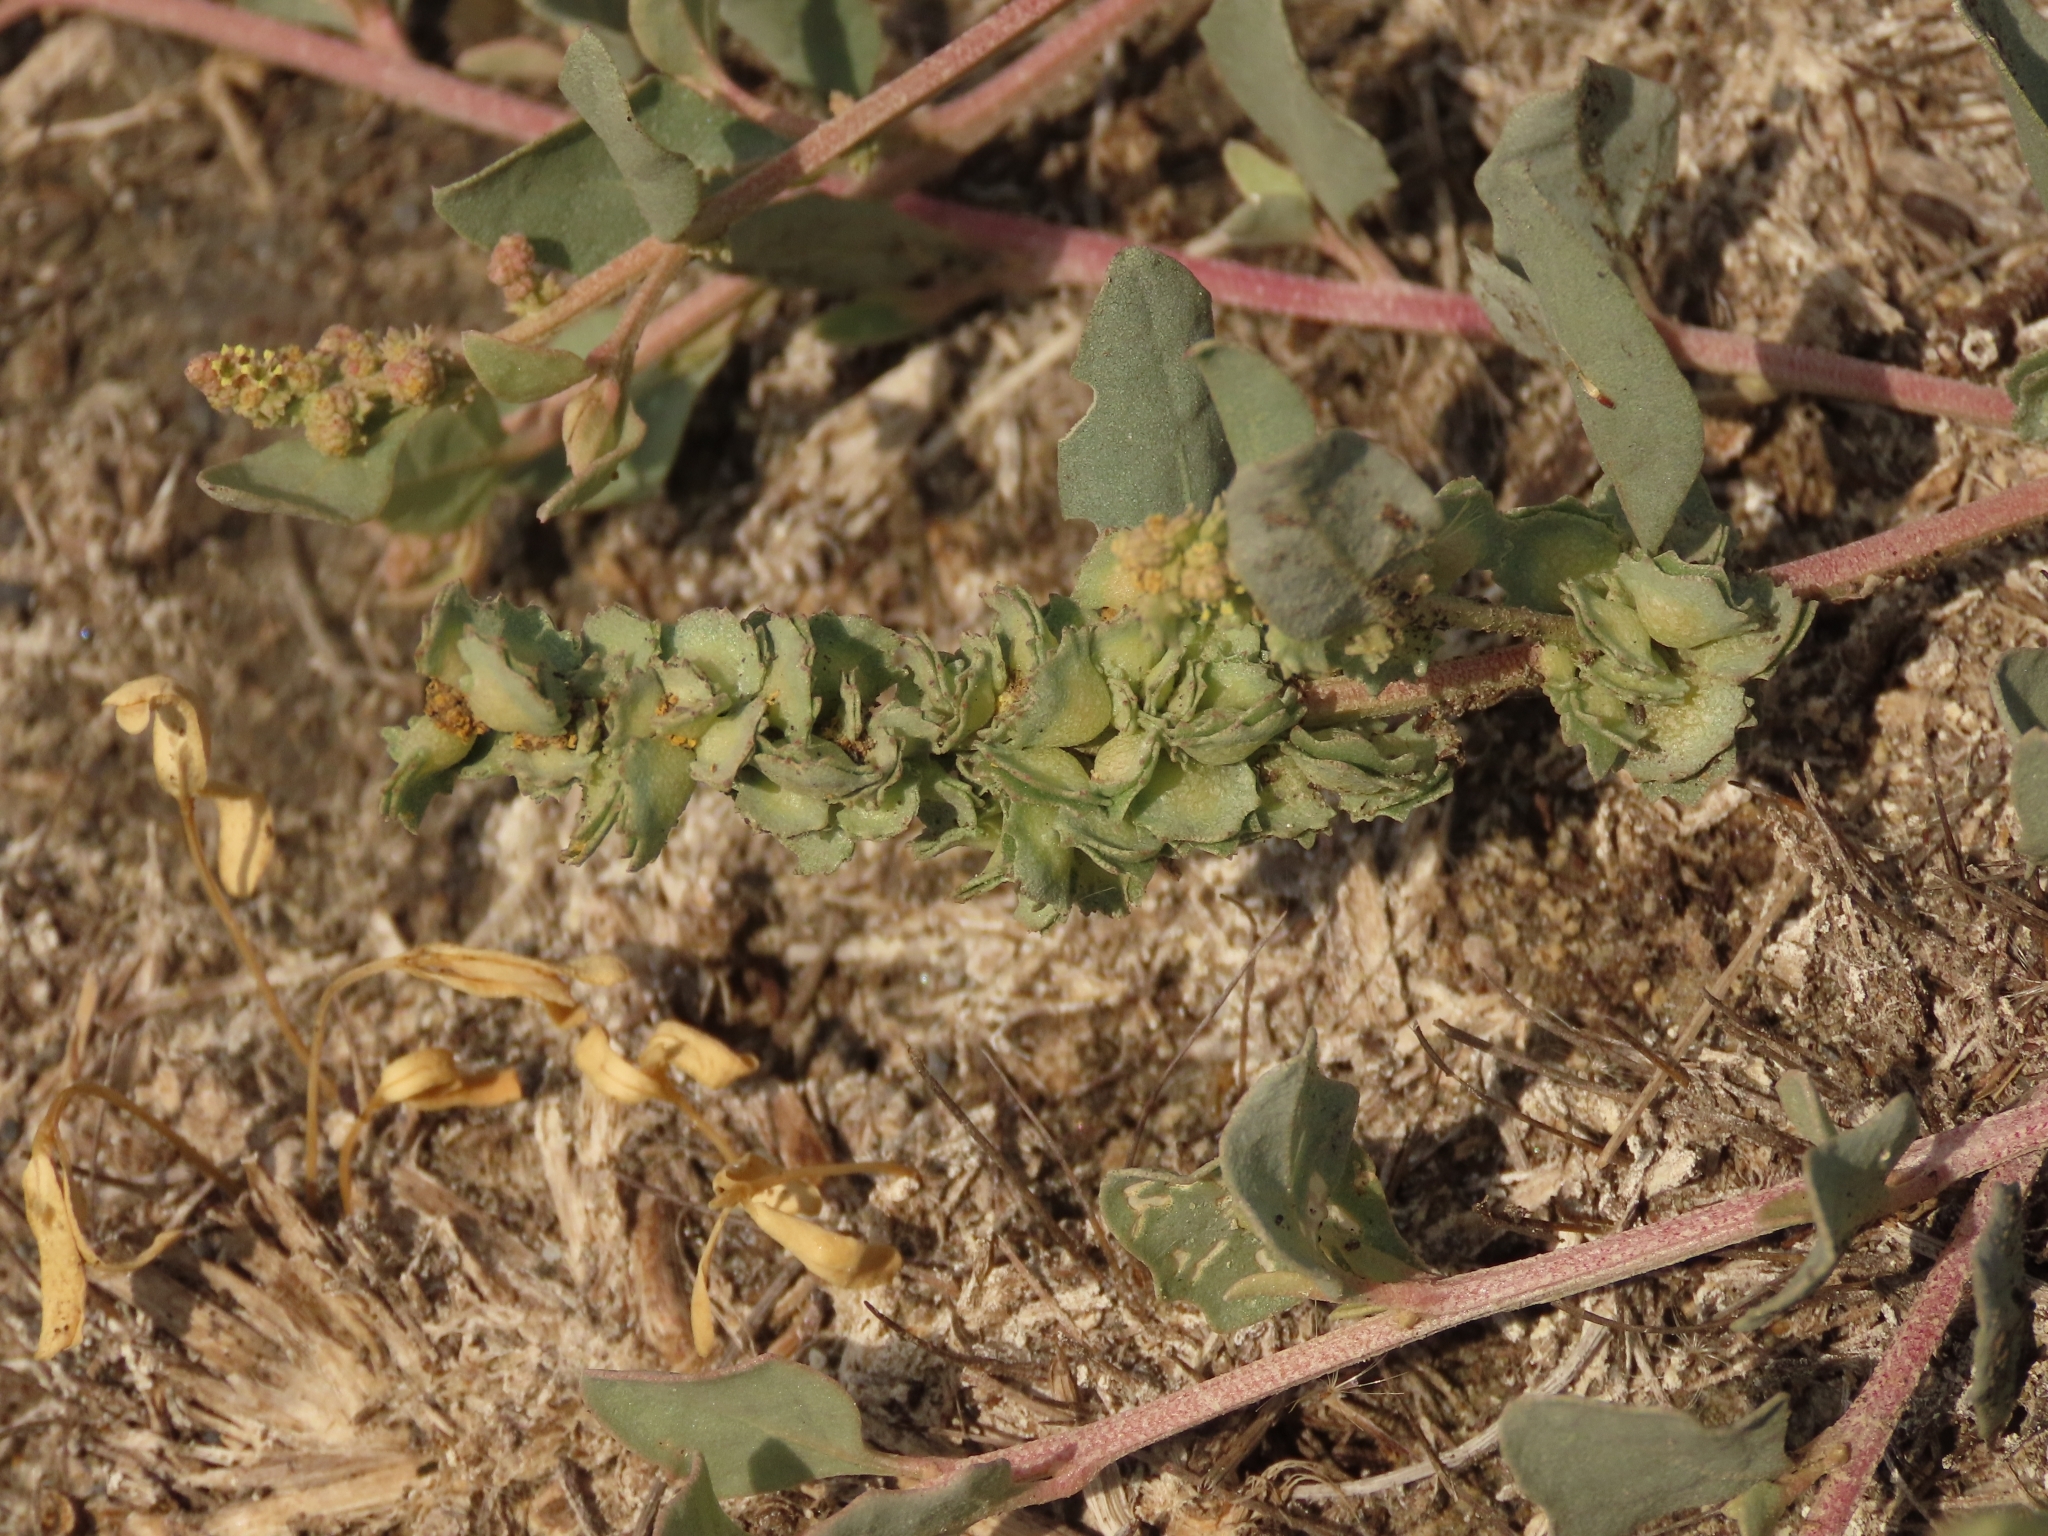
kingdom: Plantae
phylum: Tracheophyta
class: Magnoliopsida
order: Caryophyllales
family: Amaranthaceae
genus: Atriplex
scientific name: Atriplex maximowicziana
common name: Maximowicz's saltbush
